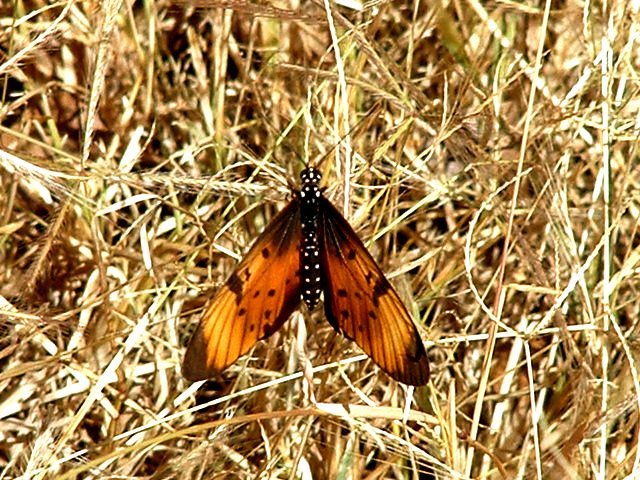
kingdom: Animalia
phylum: Arthropoda
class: Insecta
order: Lepidoptera
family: Nymphalidae
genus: Stephenia
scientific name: Stephenia
